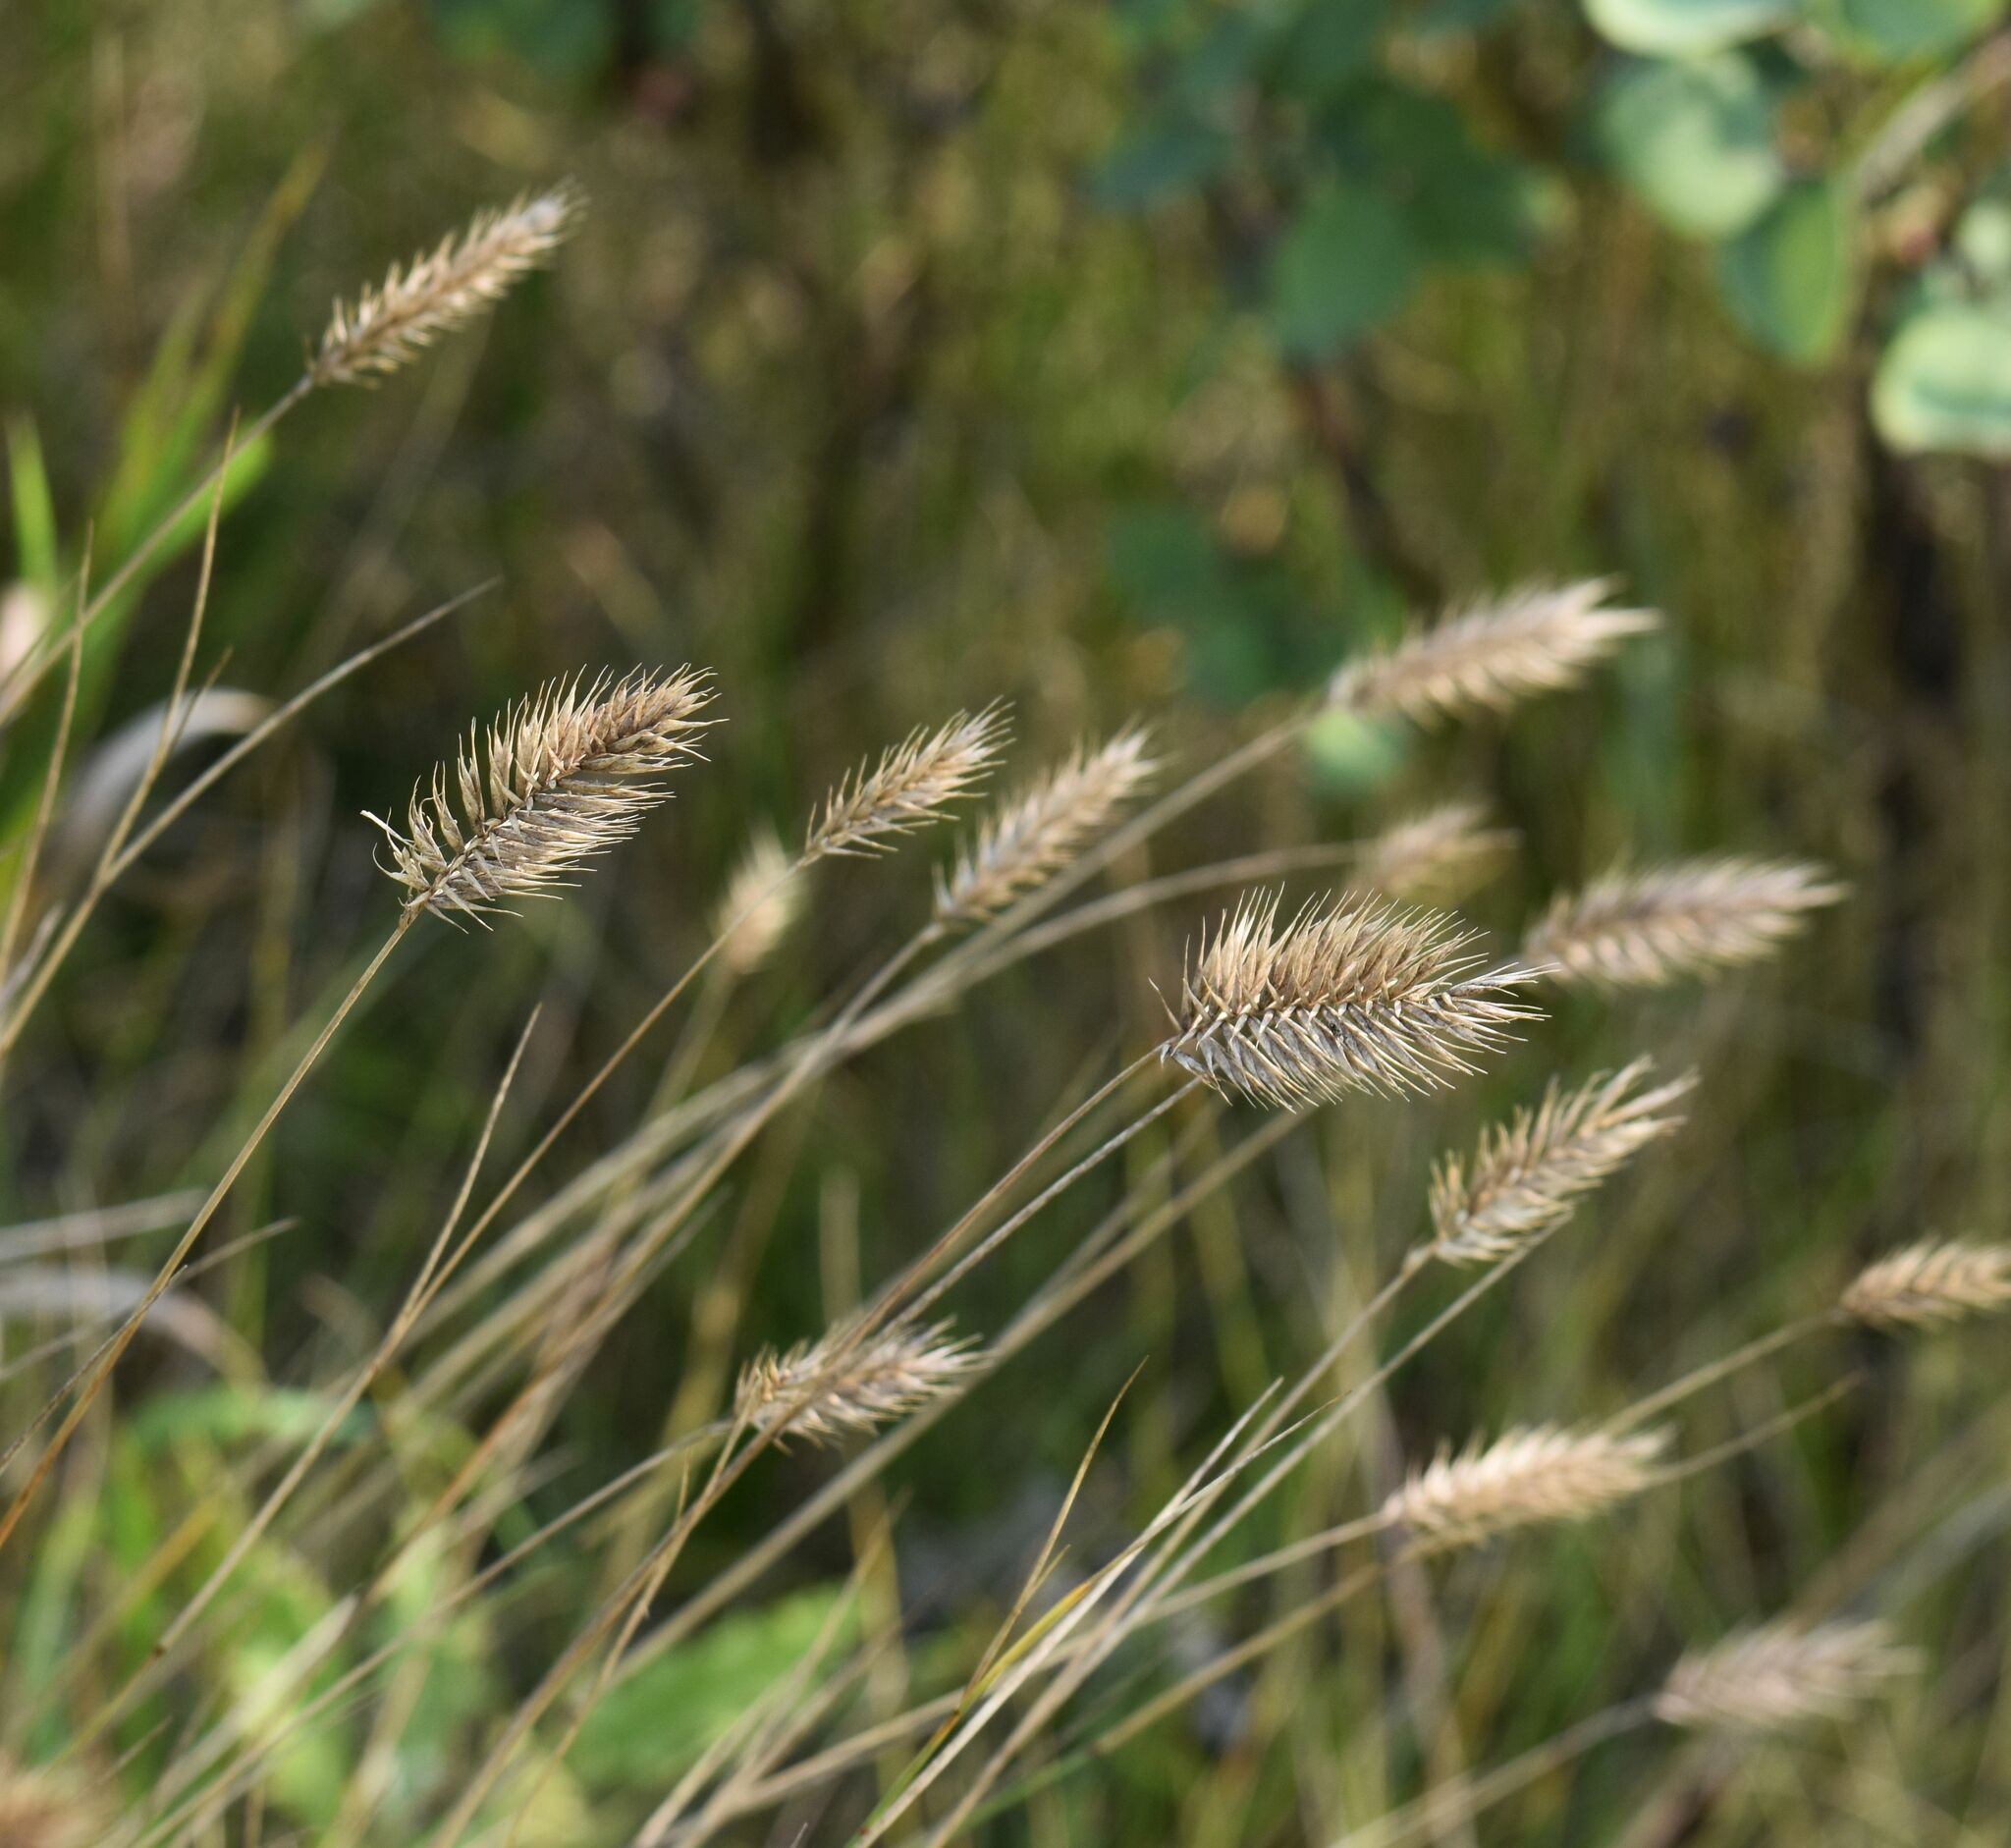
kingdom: Plantae
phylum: Tracheophyta
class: Liliopsida
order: Poales
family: Poaceae
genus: Agropyron
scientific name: Agropyron cristatum
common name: Crested wheatgrass
